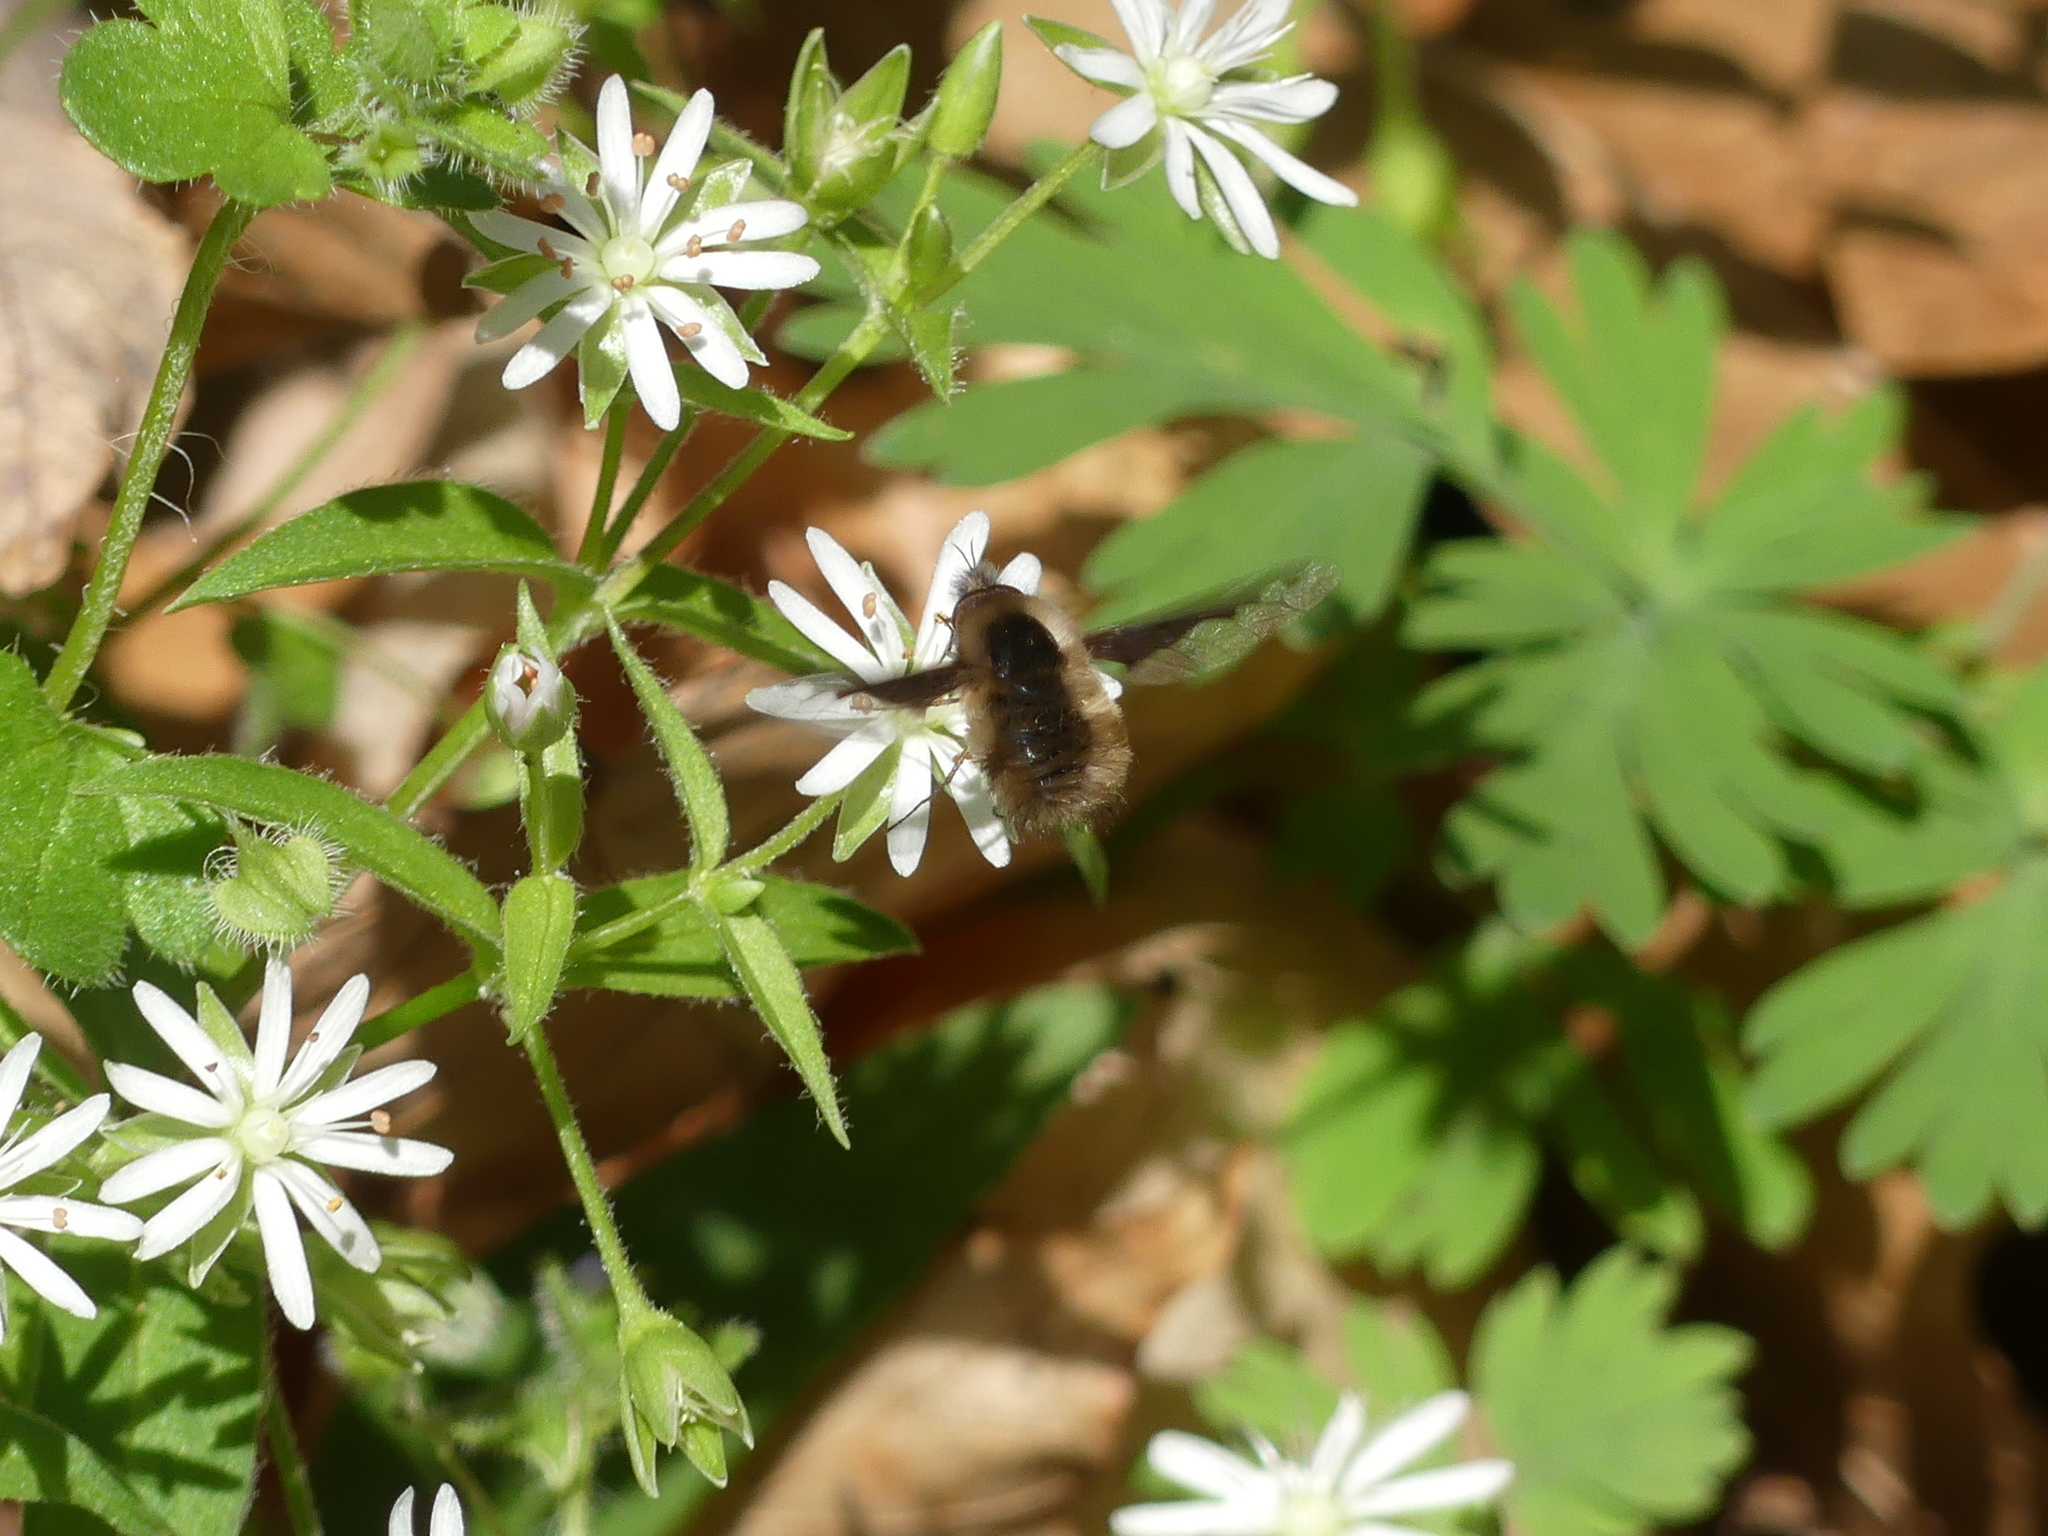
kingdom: Animalia
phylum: Arthropoda
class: Insecta
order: Diptera
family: Bombyliidae
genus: Bombylius
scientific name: Bombylius major
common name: Bee fly
